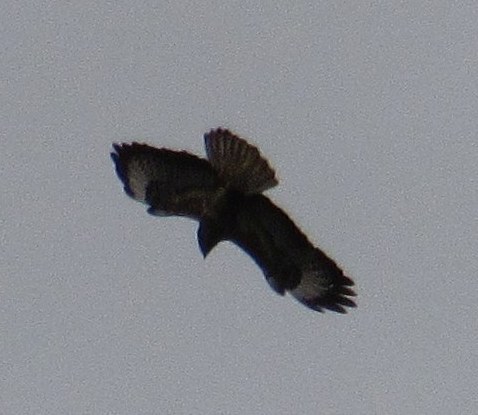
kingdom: Animalia
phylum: Chordata
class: Aves
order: Accipitriformes
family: Accipitridae
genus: Buteo
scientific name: Buteo buteo
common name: Common buzzard
